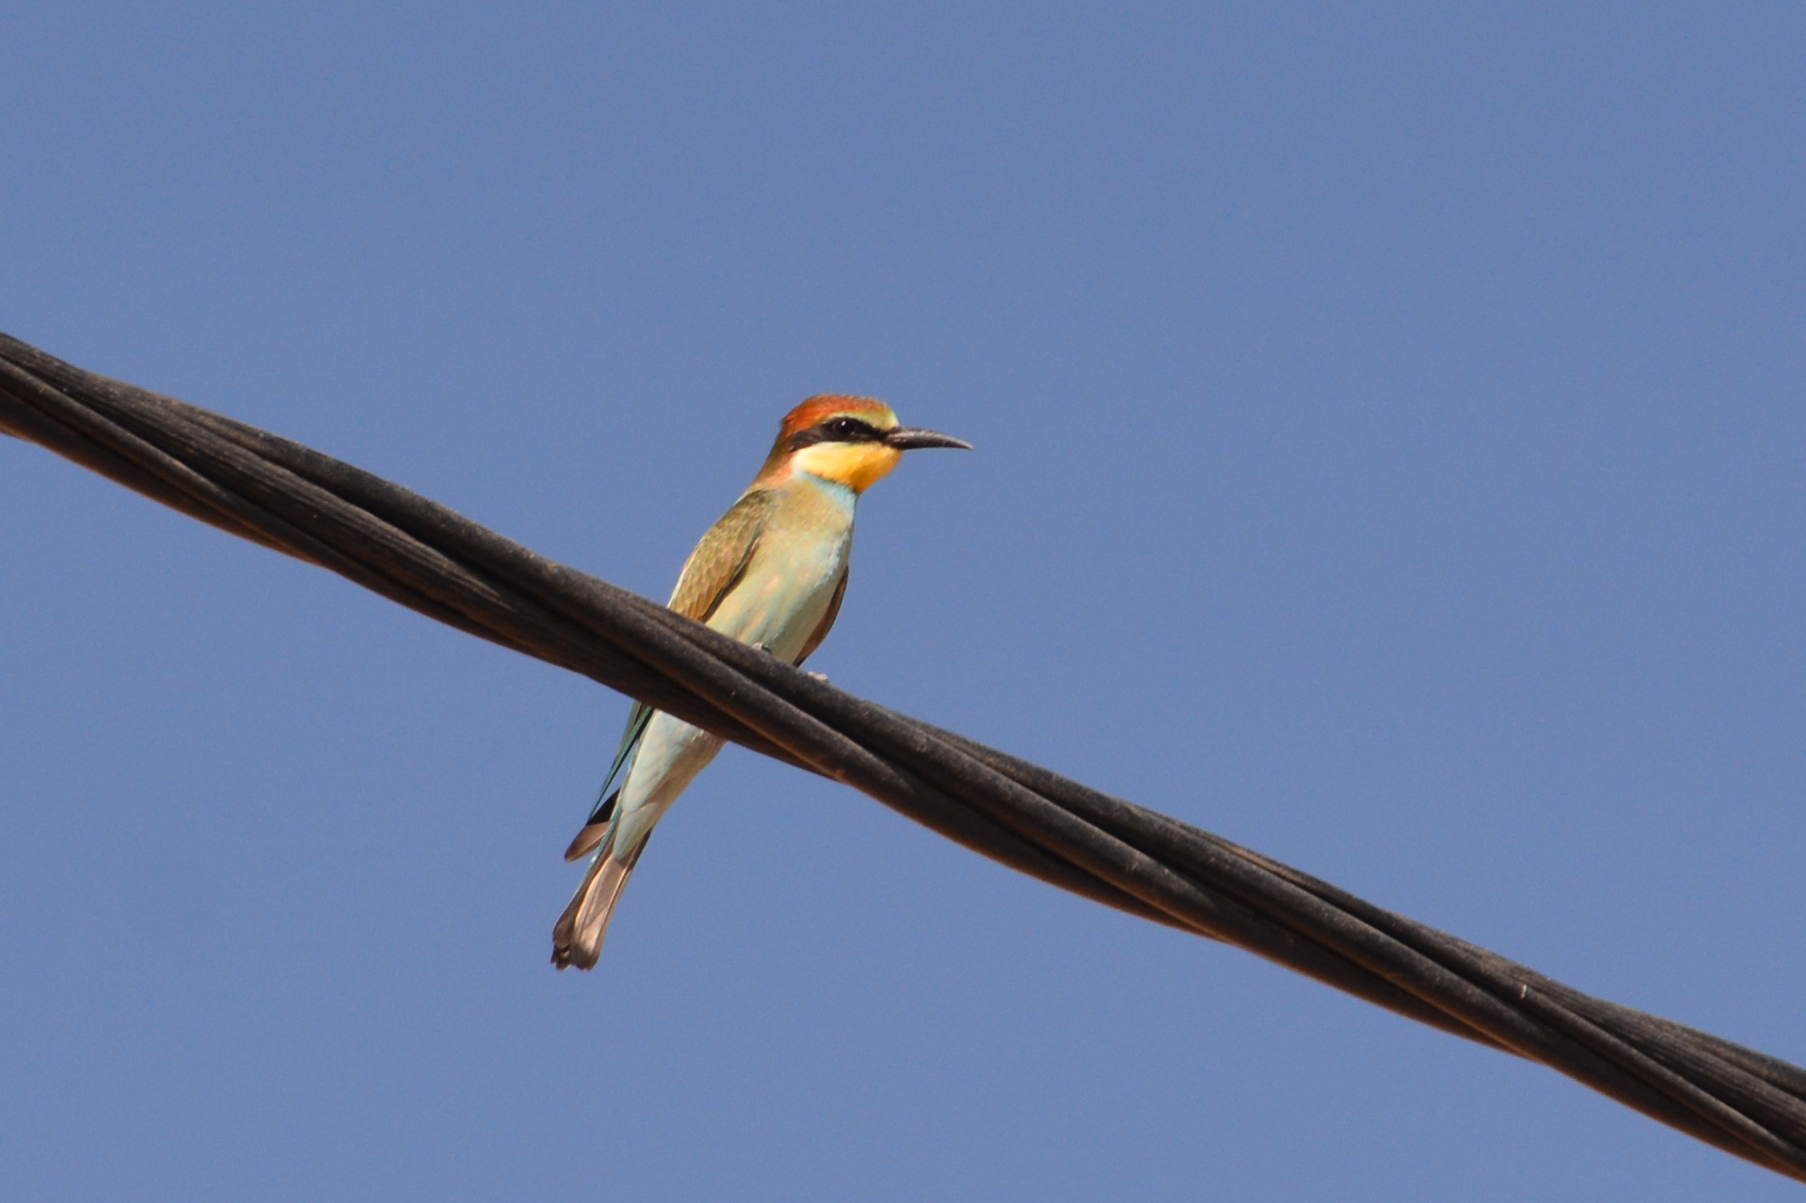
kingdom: Animalia
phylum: Chordata
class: Aves
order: Coraciiformes
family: Meropidae
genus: Merops
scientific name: Merops apiaster
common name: European bee-eater
